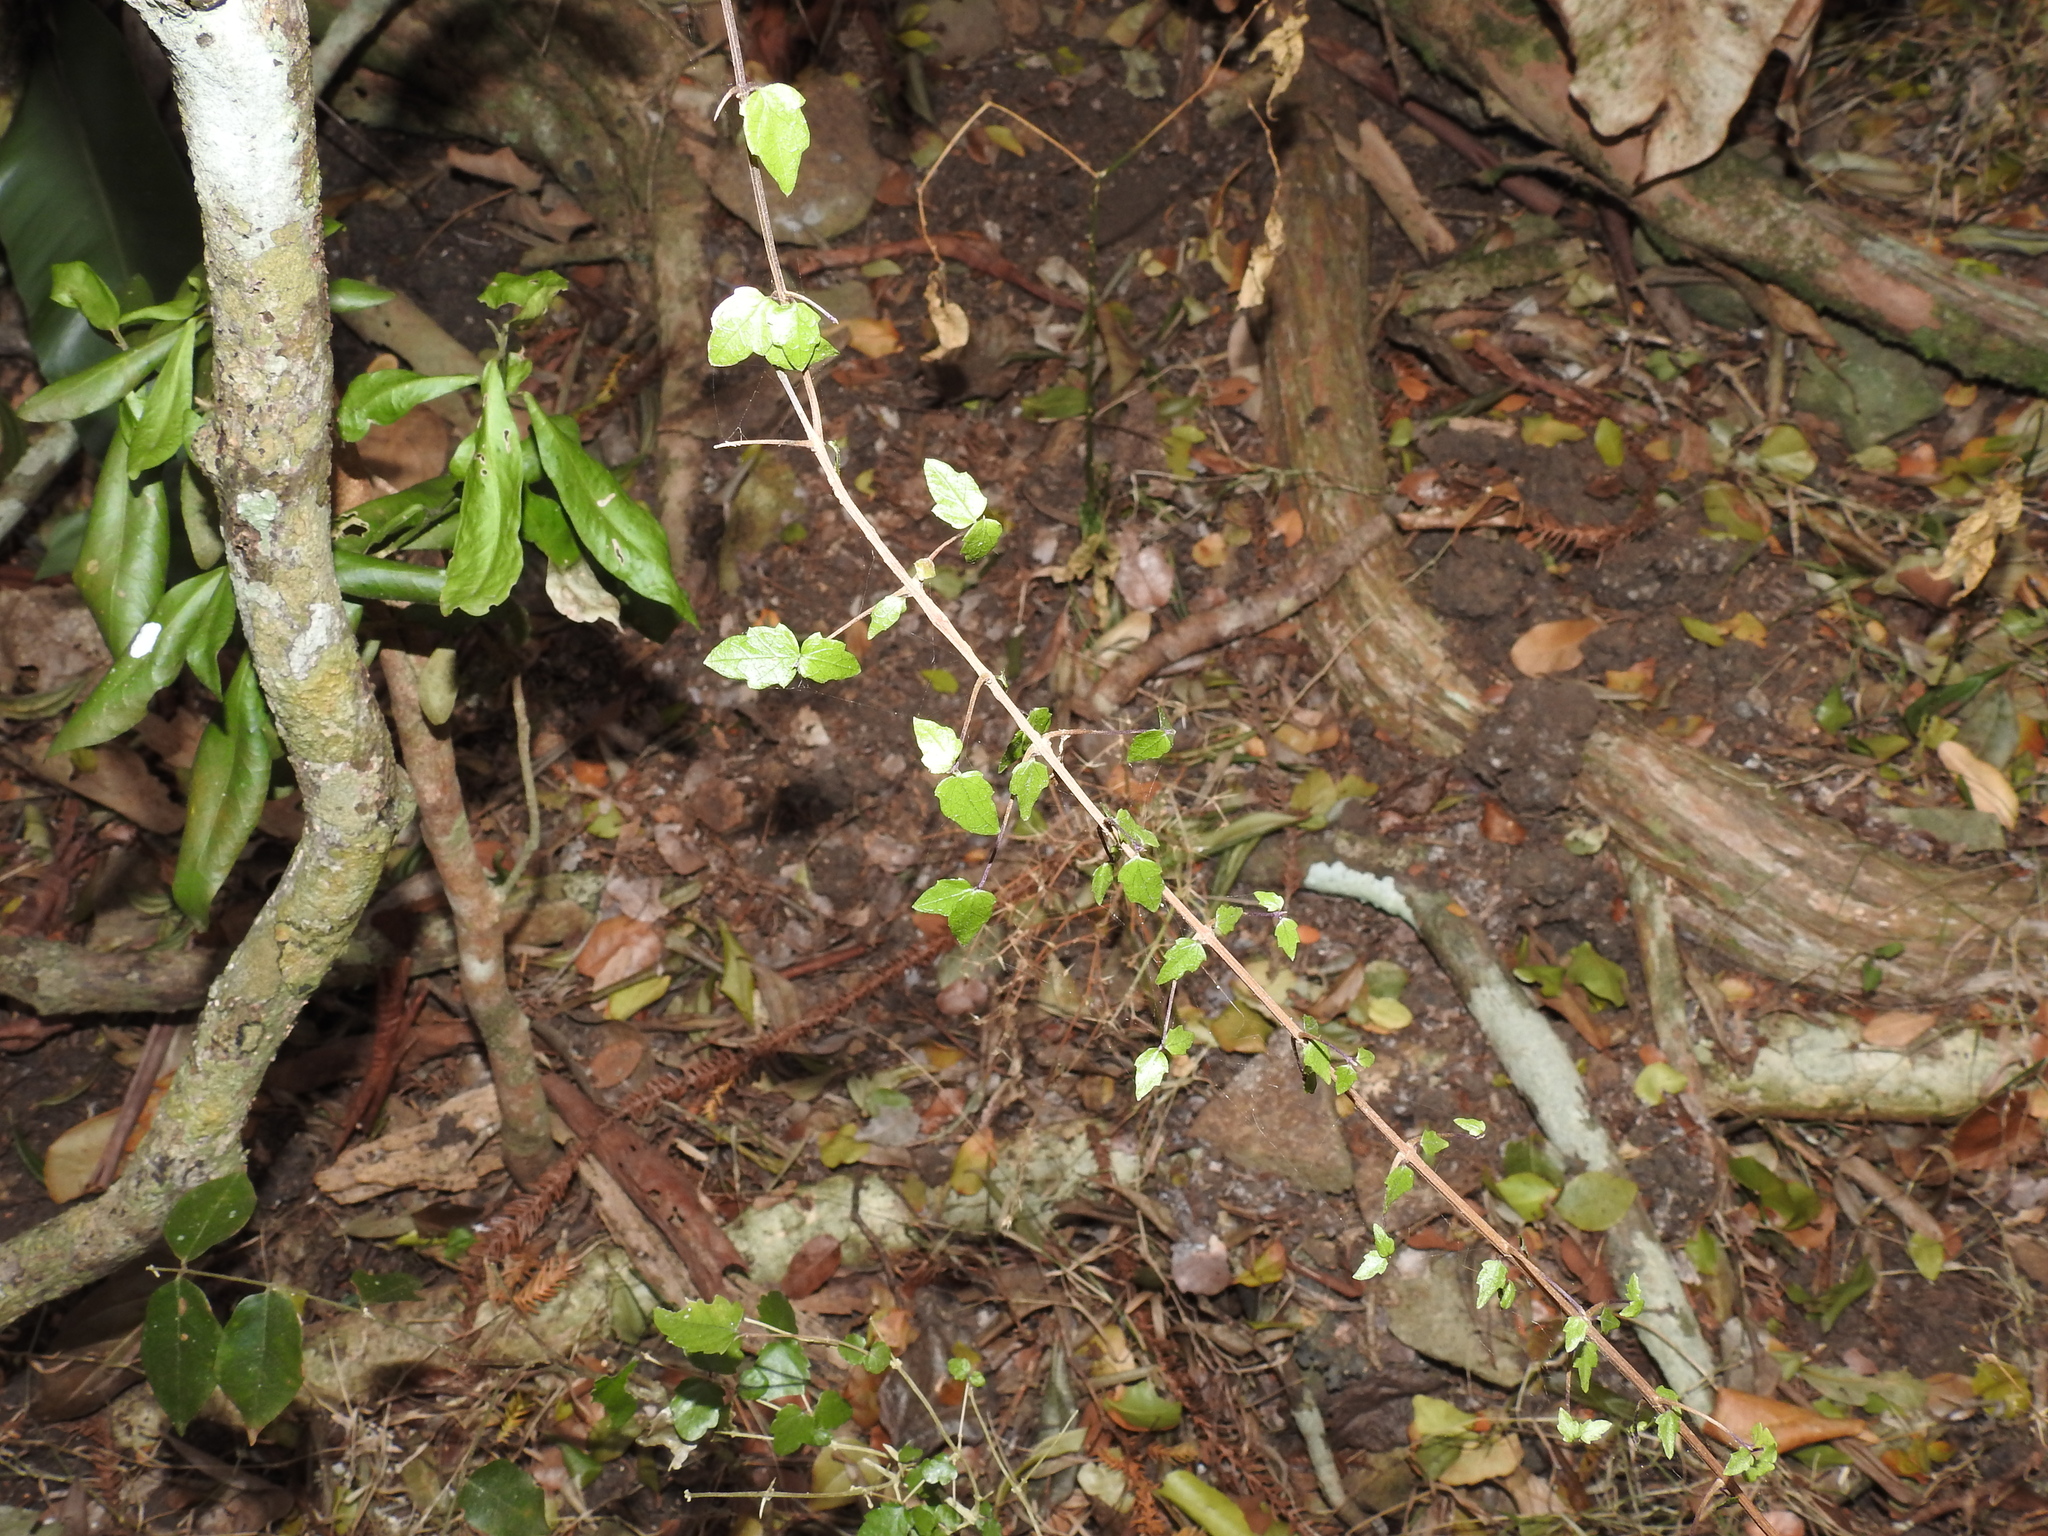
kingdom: Plantae
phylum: Tracheophyta
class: Magnoliopsida
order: Lamiales
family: Lamiaceae
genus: Glossocarya
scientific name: Glossocarya hemiderma
